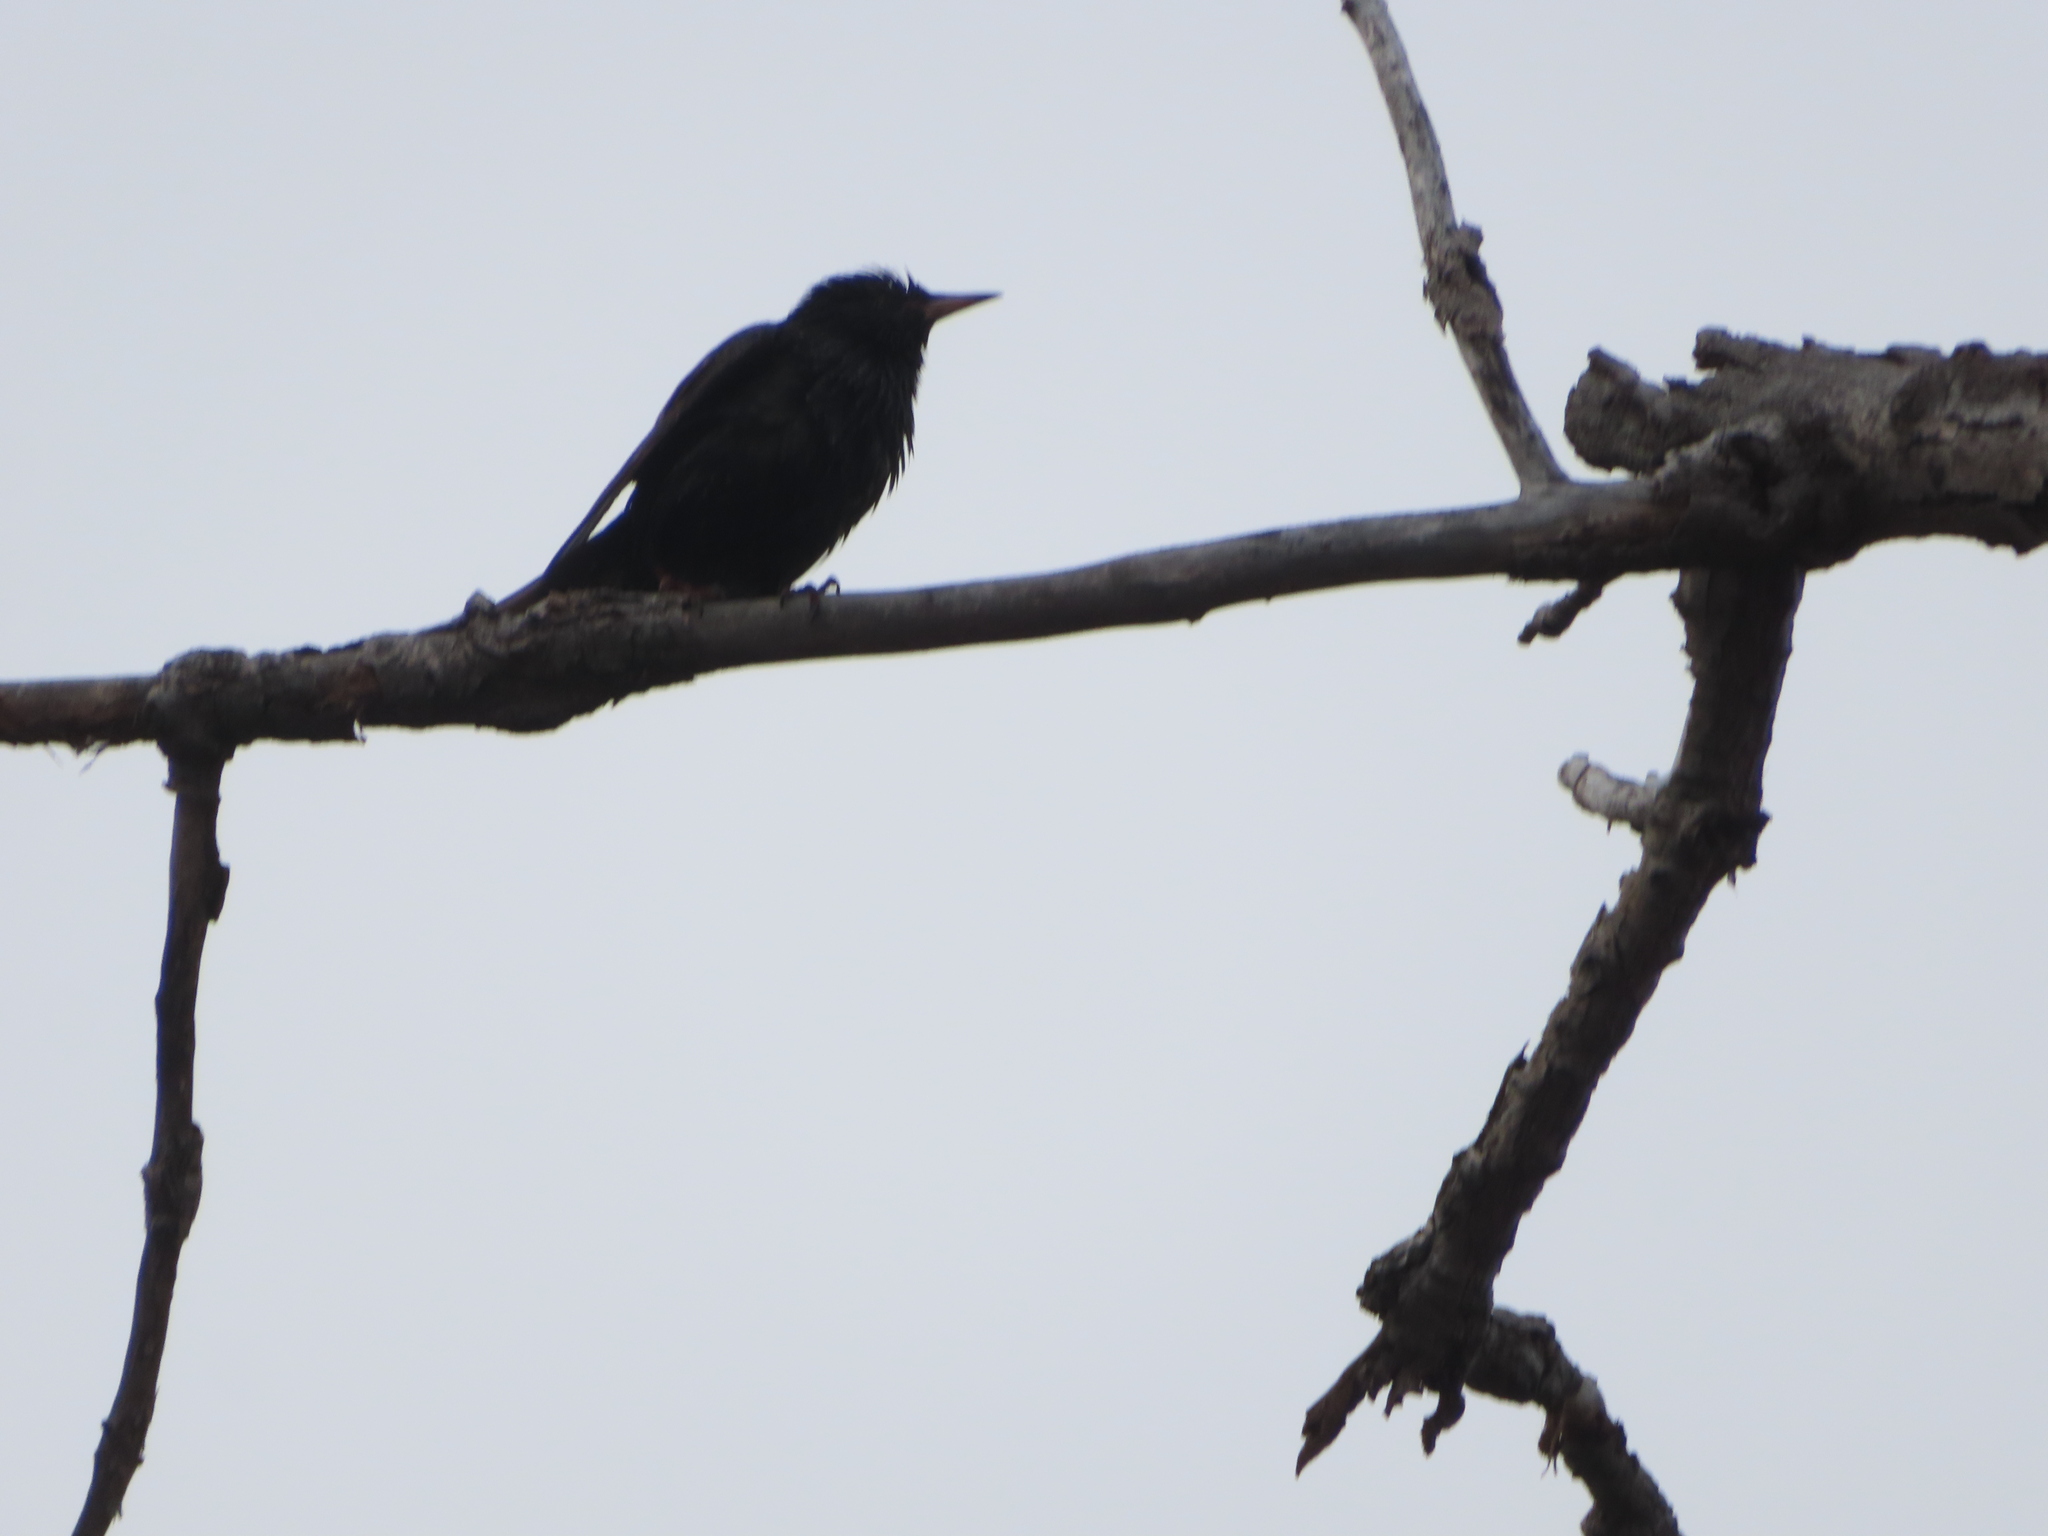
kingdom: Animalia
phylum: Chordata
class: Aves
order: Passeriformes
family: Sturnidae
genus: Sturnus
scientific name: Sturnus vulgaris
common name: Common starling
